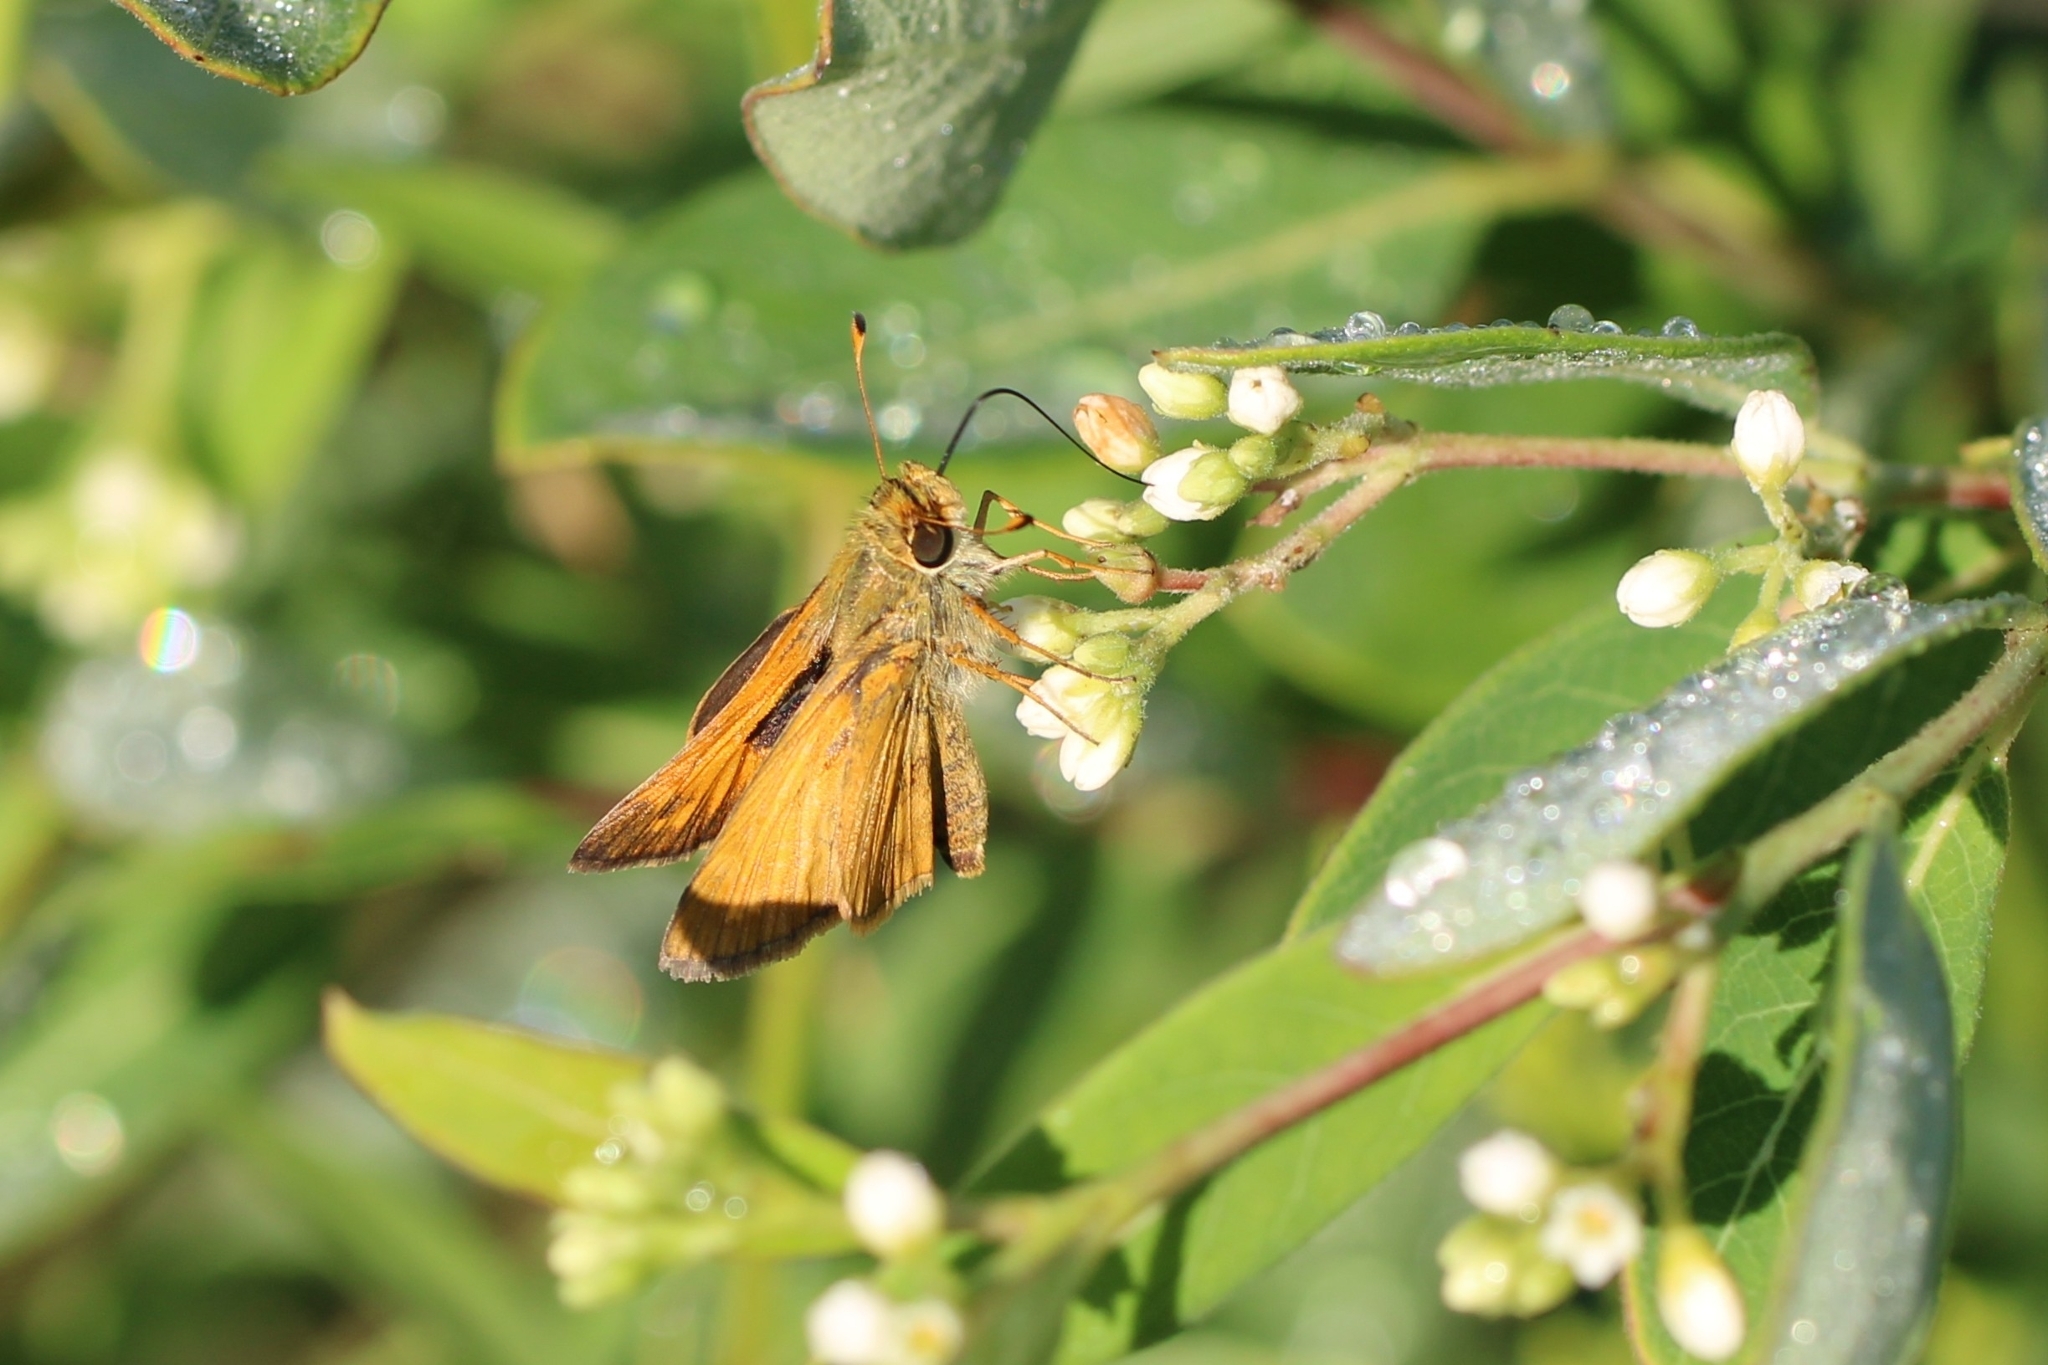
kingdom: Animalia
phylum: Arthropoda
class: Insecta
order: Lepidoptera
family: Hesperiidae
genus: Atalopedes
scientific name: Atalopedes
